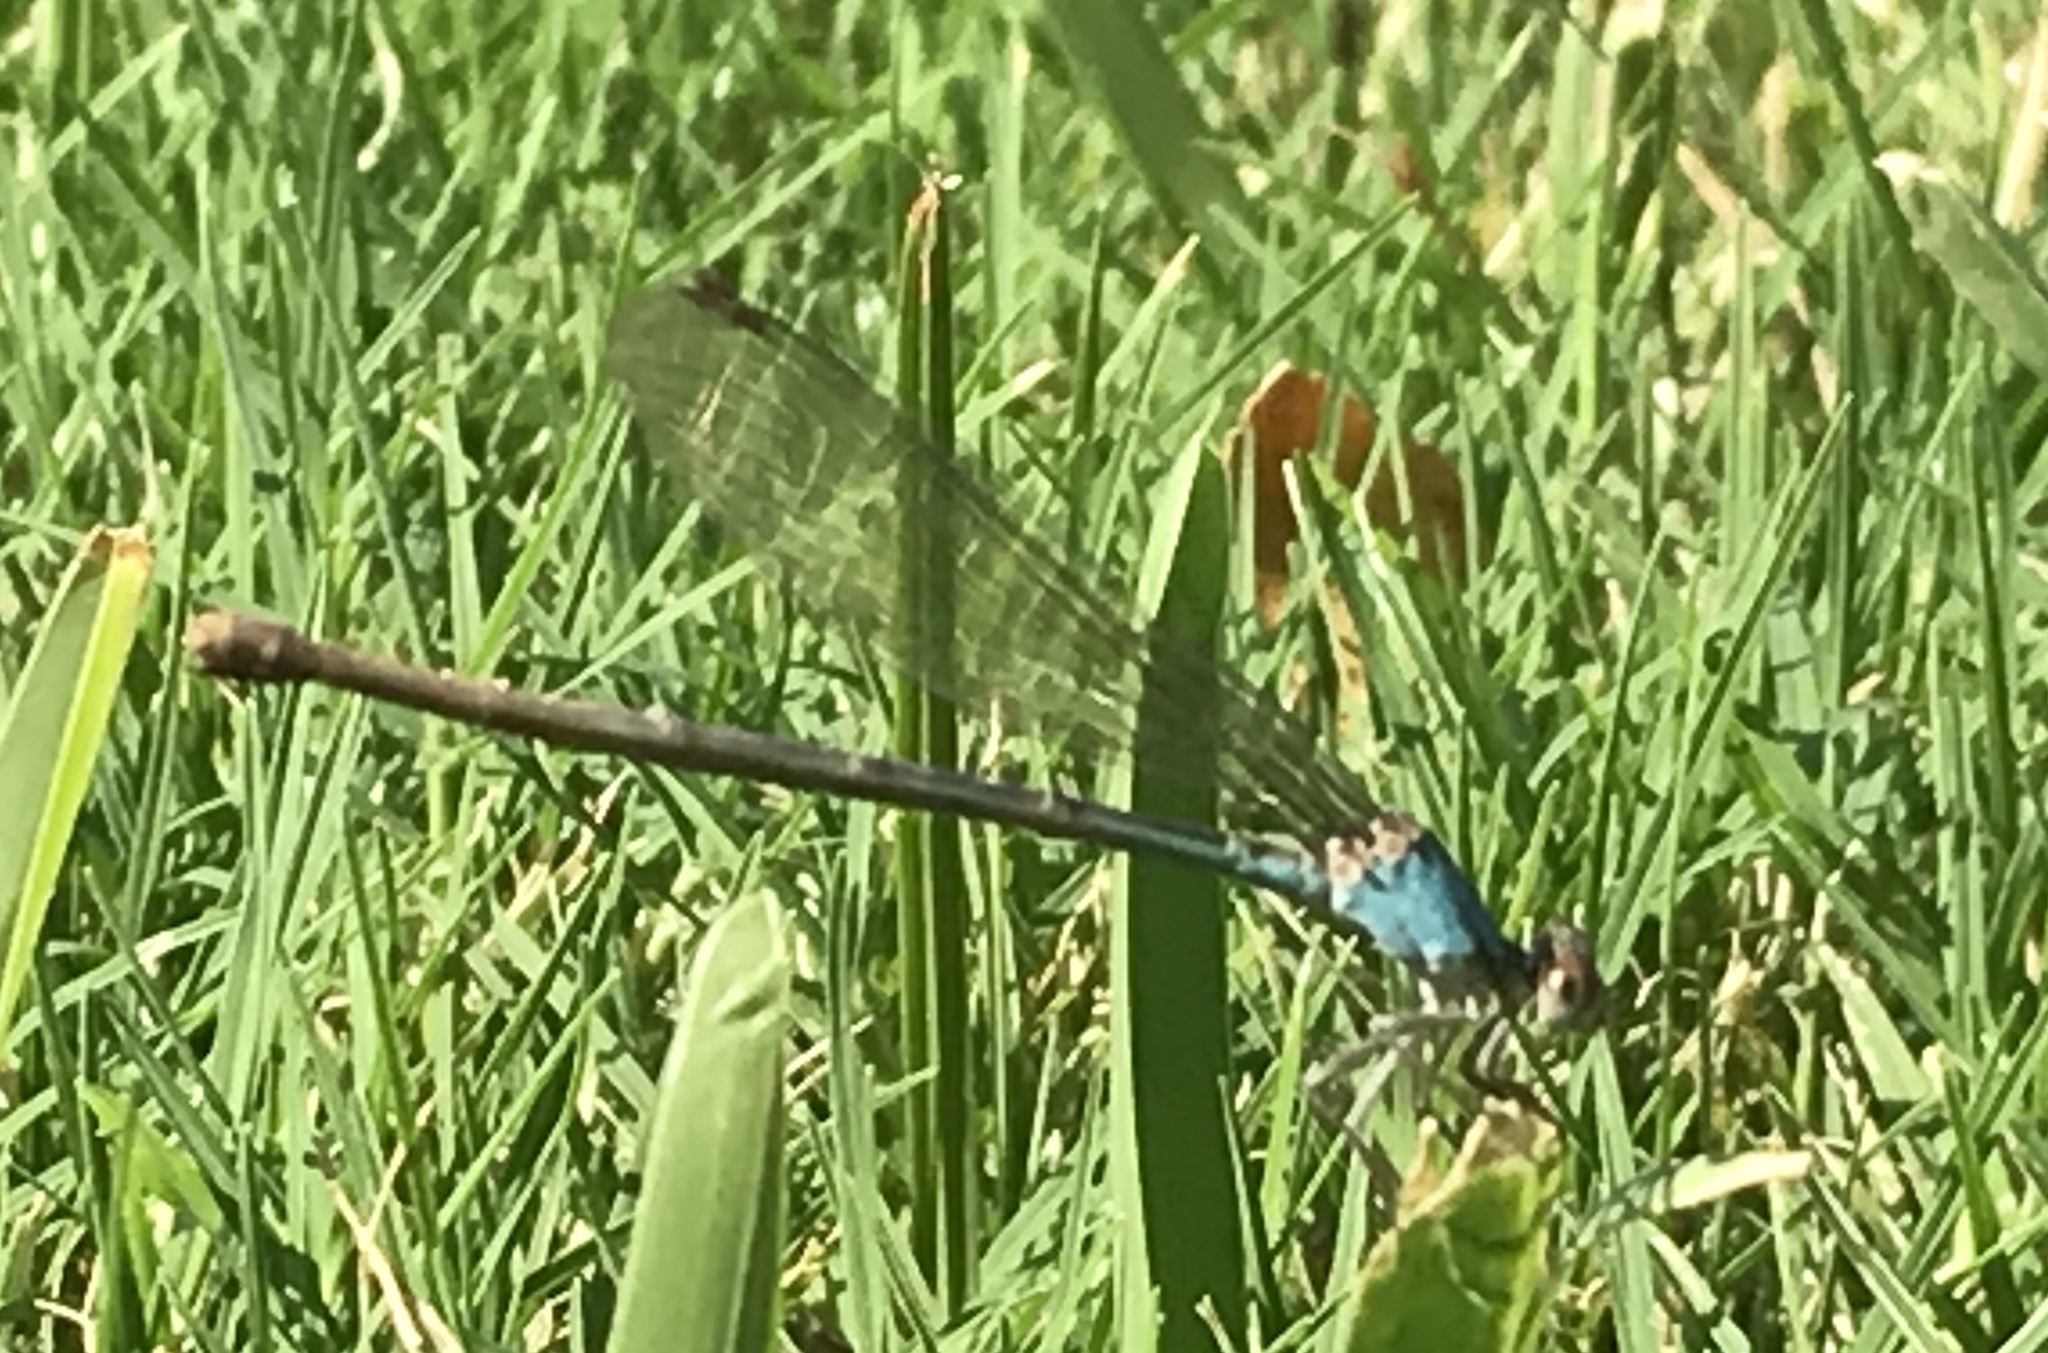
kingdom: Animalia
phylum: Arthropoda
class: Insecta
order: Odonata
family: Coenagrionidae
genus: Argia
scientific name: Argia apicalis
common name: Blue-fronted dancer
